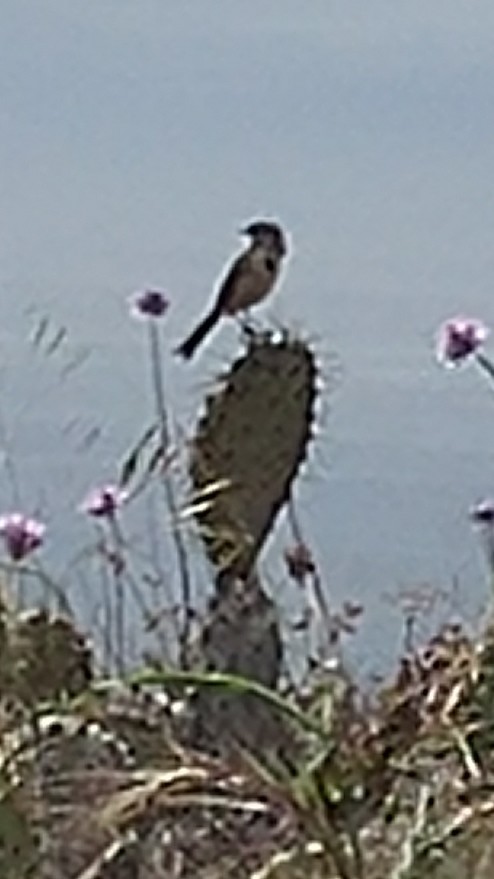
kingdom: Animalia
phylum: Chordata
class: Aves
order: Passeriformes
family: Passerellidae
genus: Artemisiospiza
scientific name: Artemisiospiza belli
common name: Bell's sparrow
